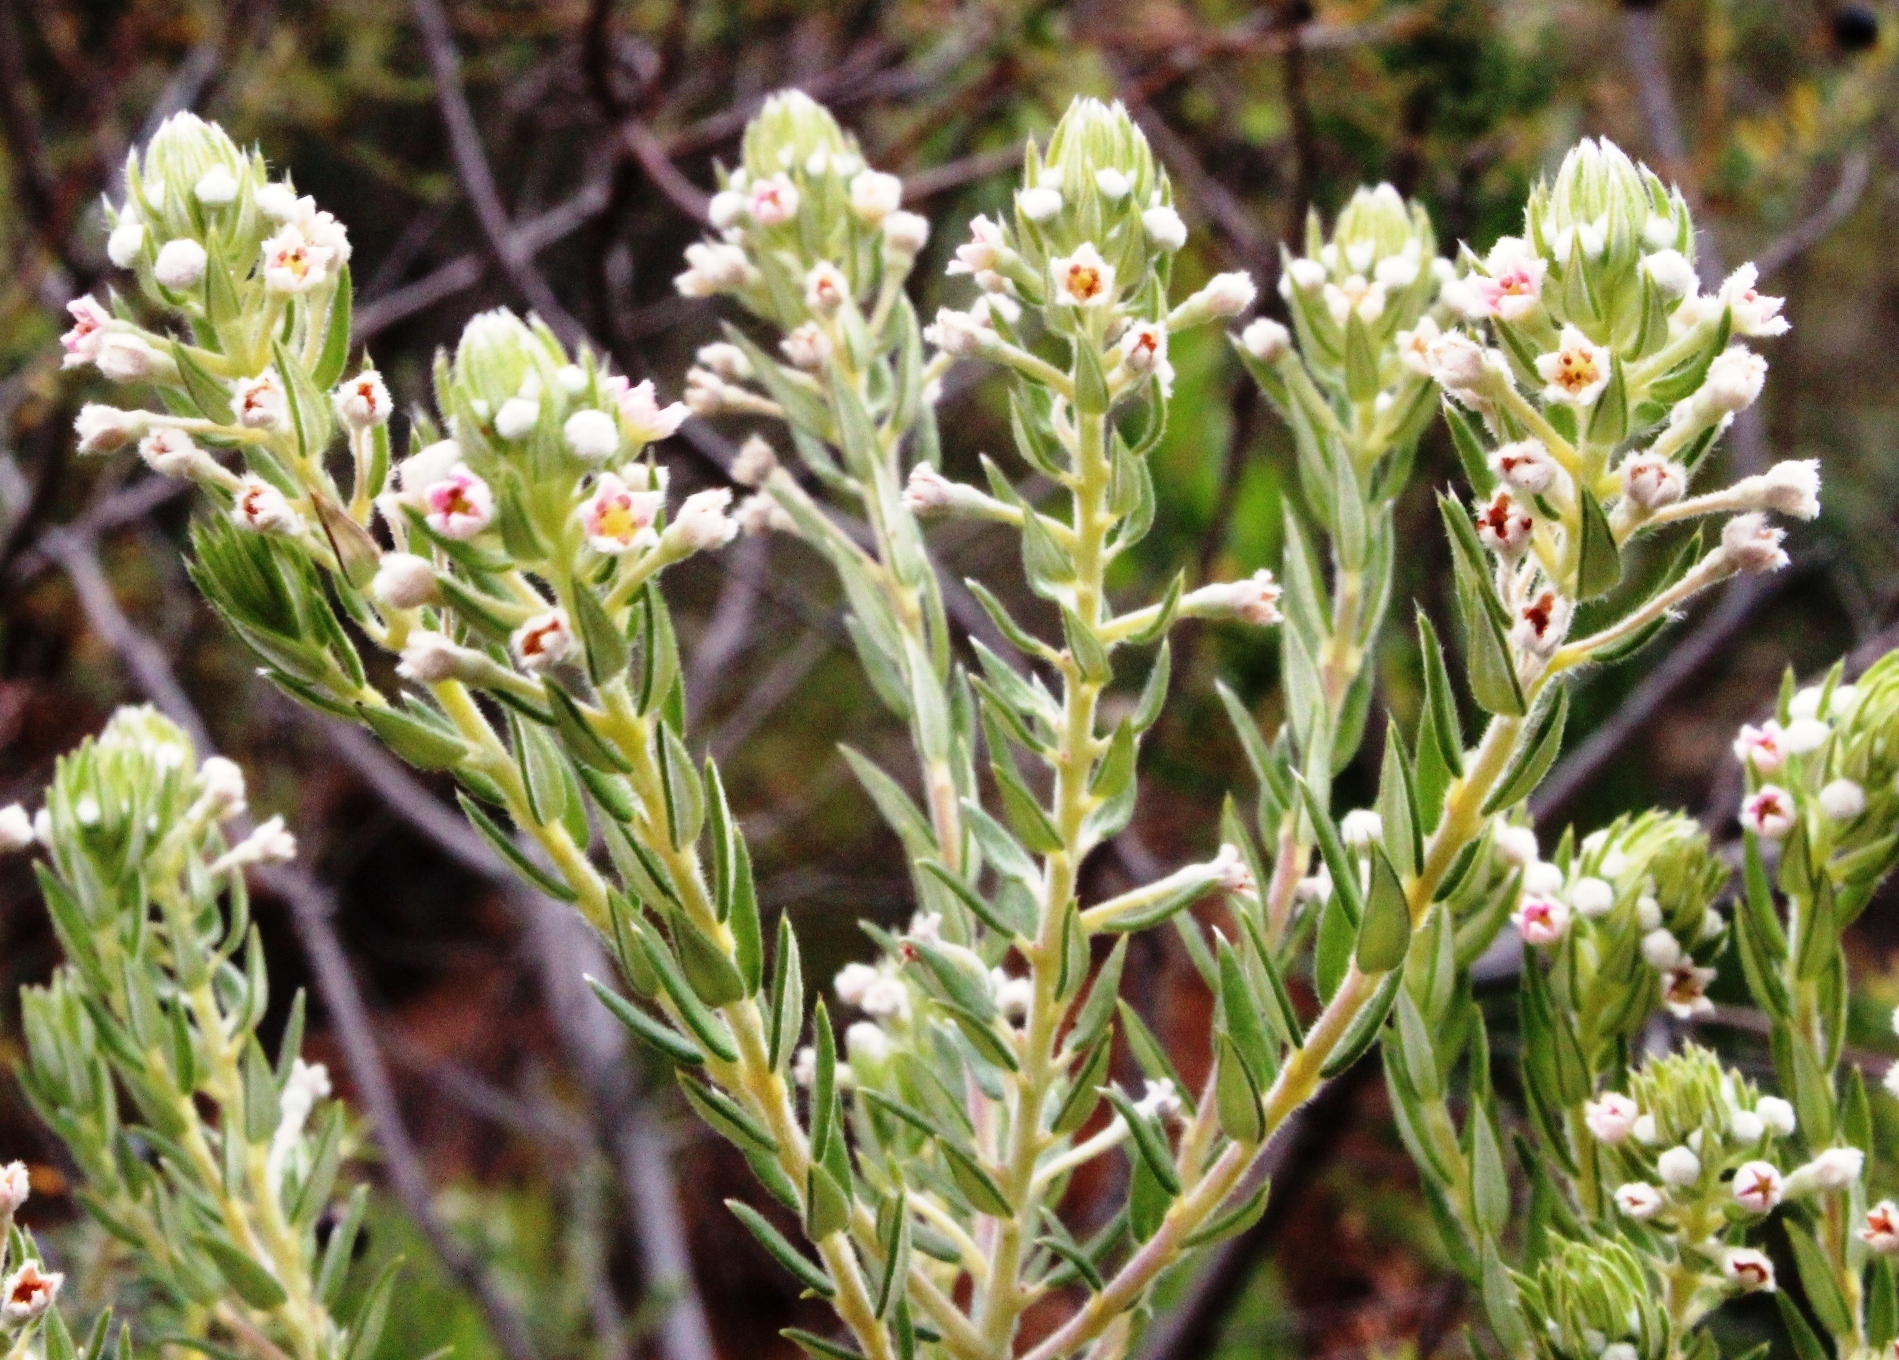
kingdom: Plantae
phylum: Tracheophyta
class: Magnoliopsida
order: Rosales
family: Rhamnaceae
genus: Phylica
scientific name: Phylica axillaris
